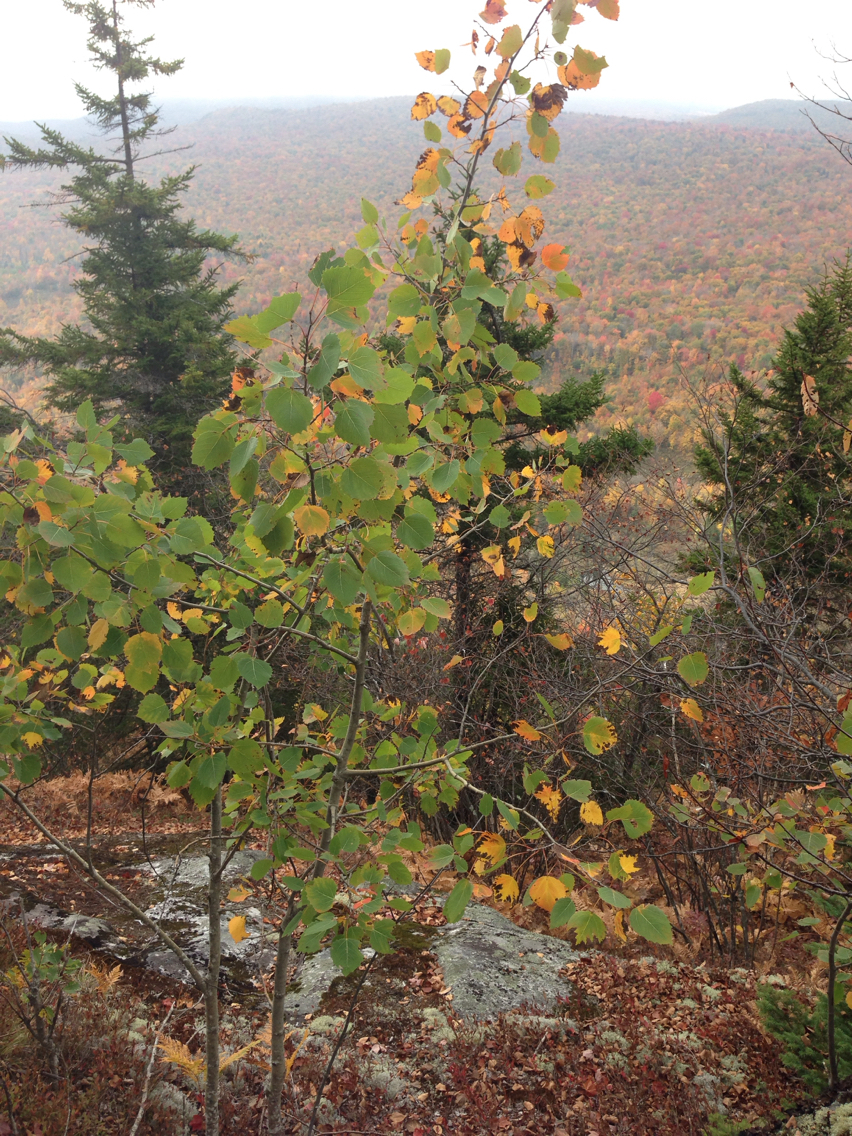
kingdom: Plantae
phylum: Tracheophyta
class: Magnoliopsida
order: Malpighiales
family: Salicaceae
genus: Populus
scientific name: Populus grandidentata
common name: Bigtooth aspen
